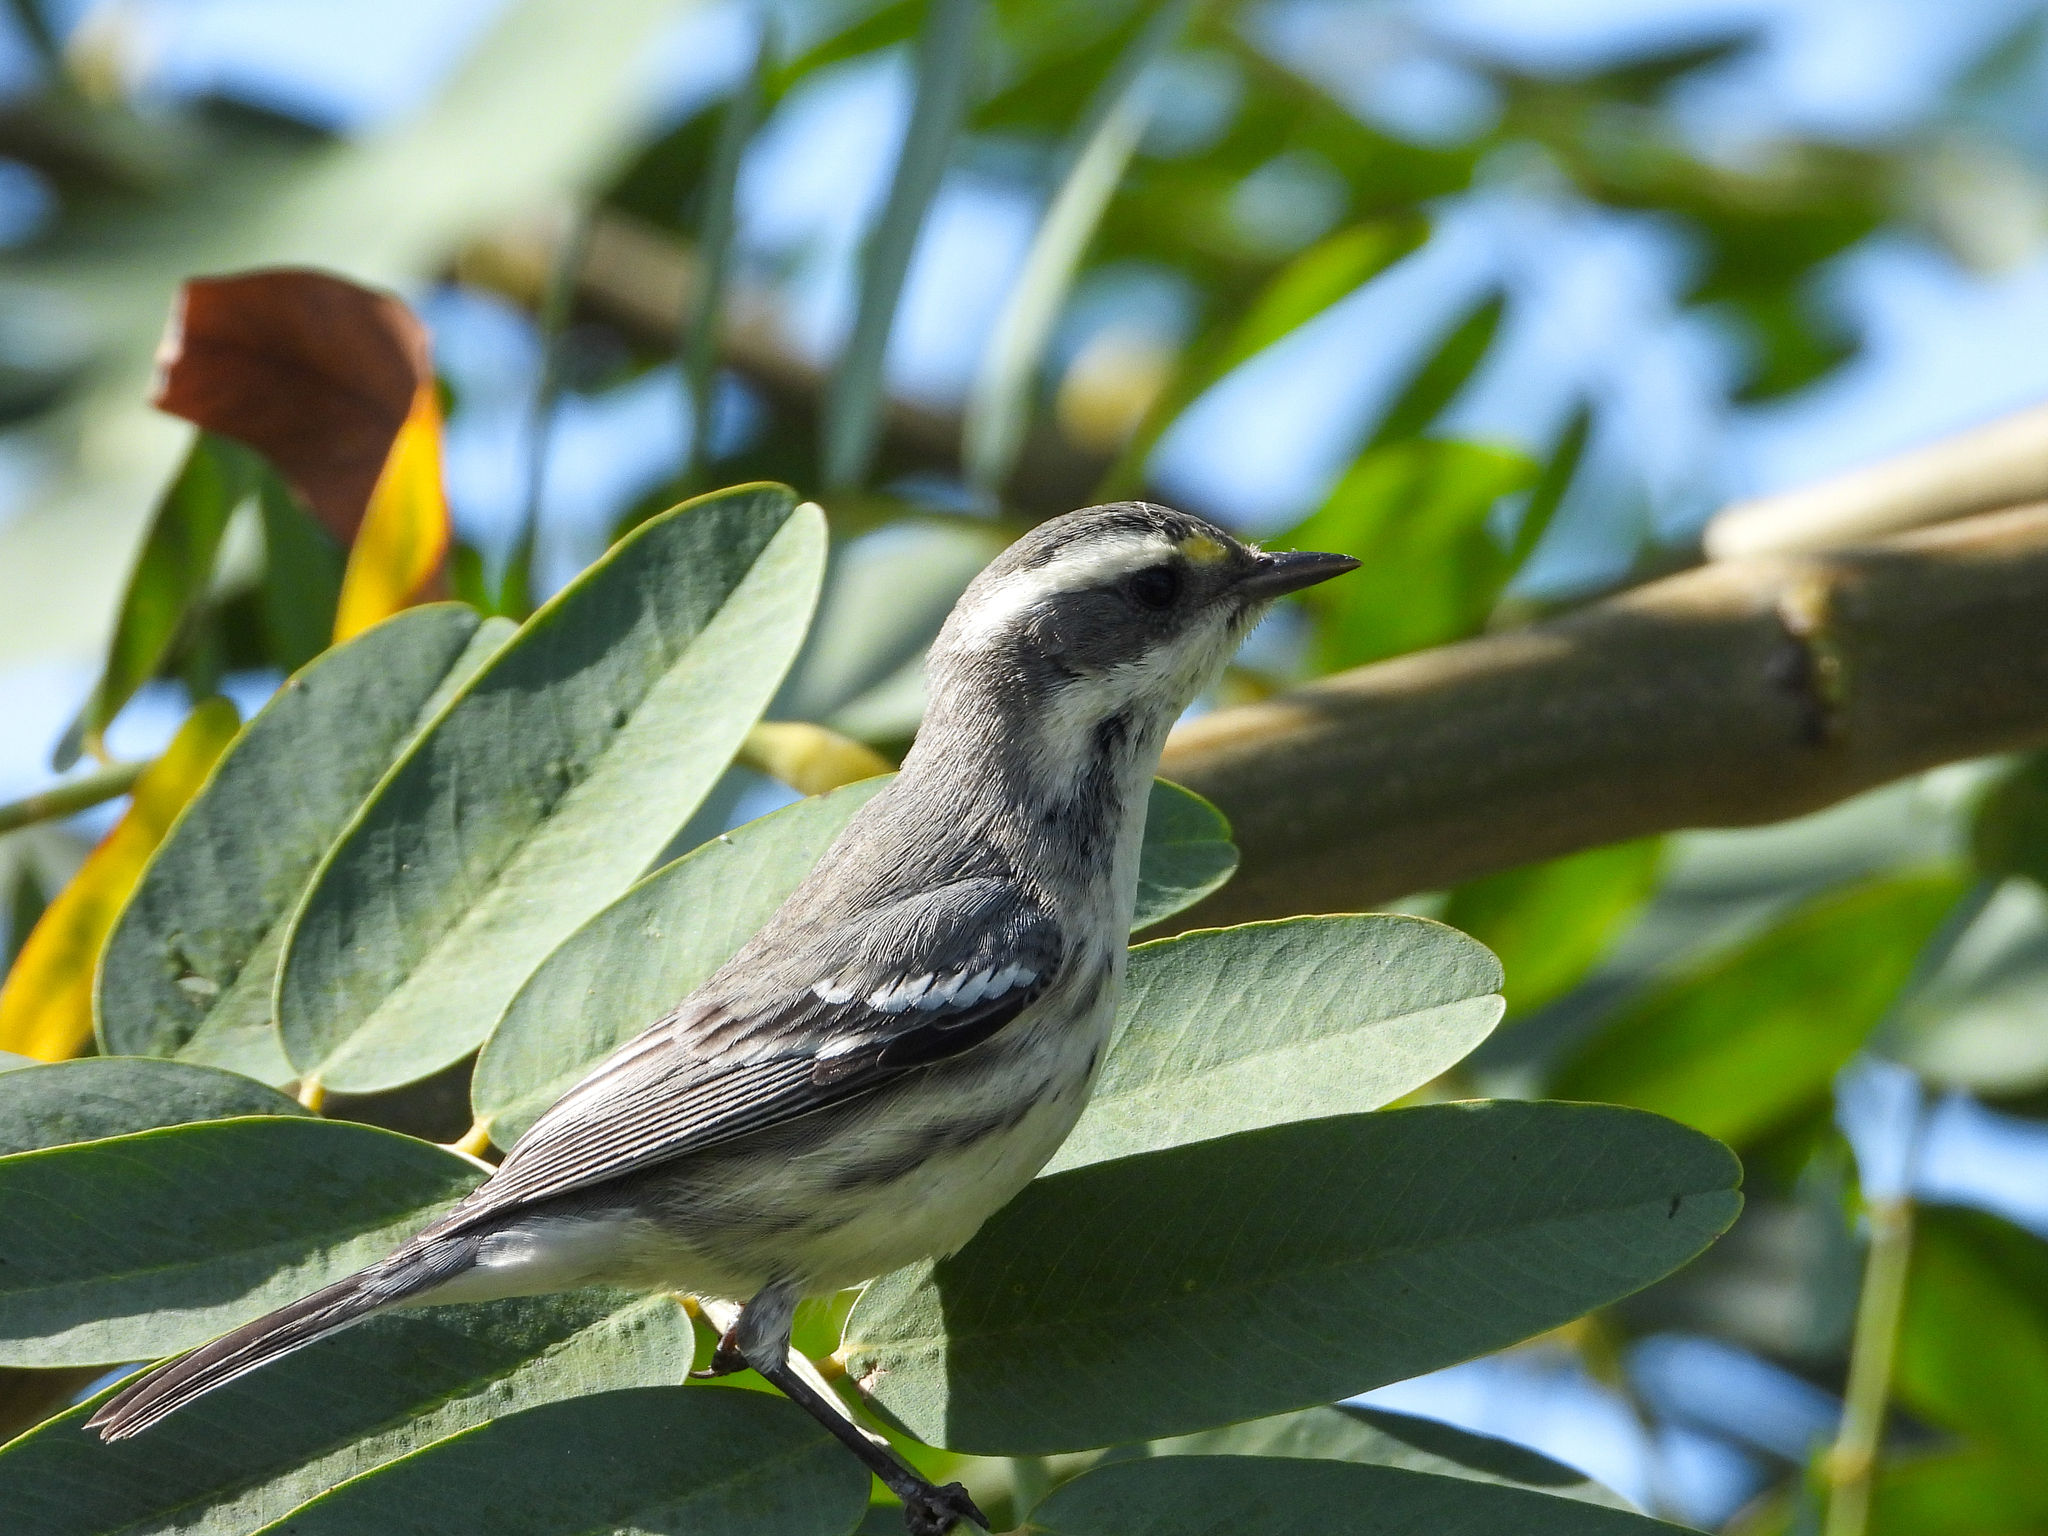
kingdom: Animalia
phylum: Chordata
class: Aves
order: Passeriformes
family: Parulidae
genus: Setophaga
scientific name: Setophaga nigrescens
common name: Black-throated gray warbler
